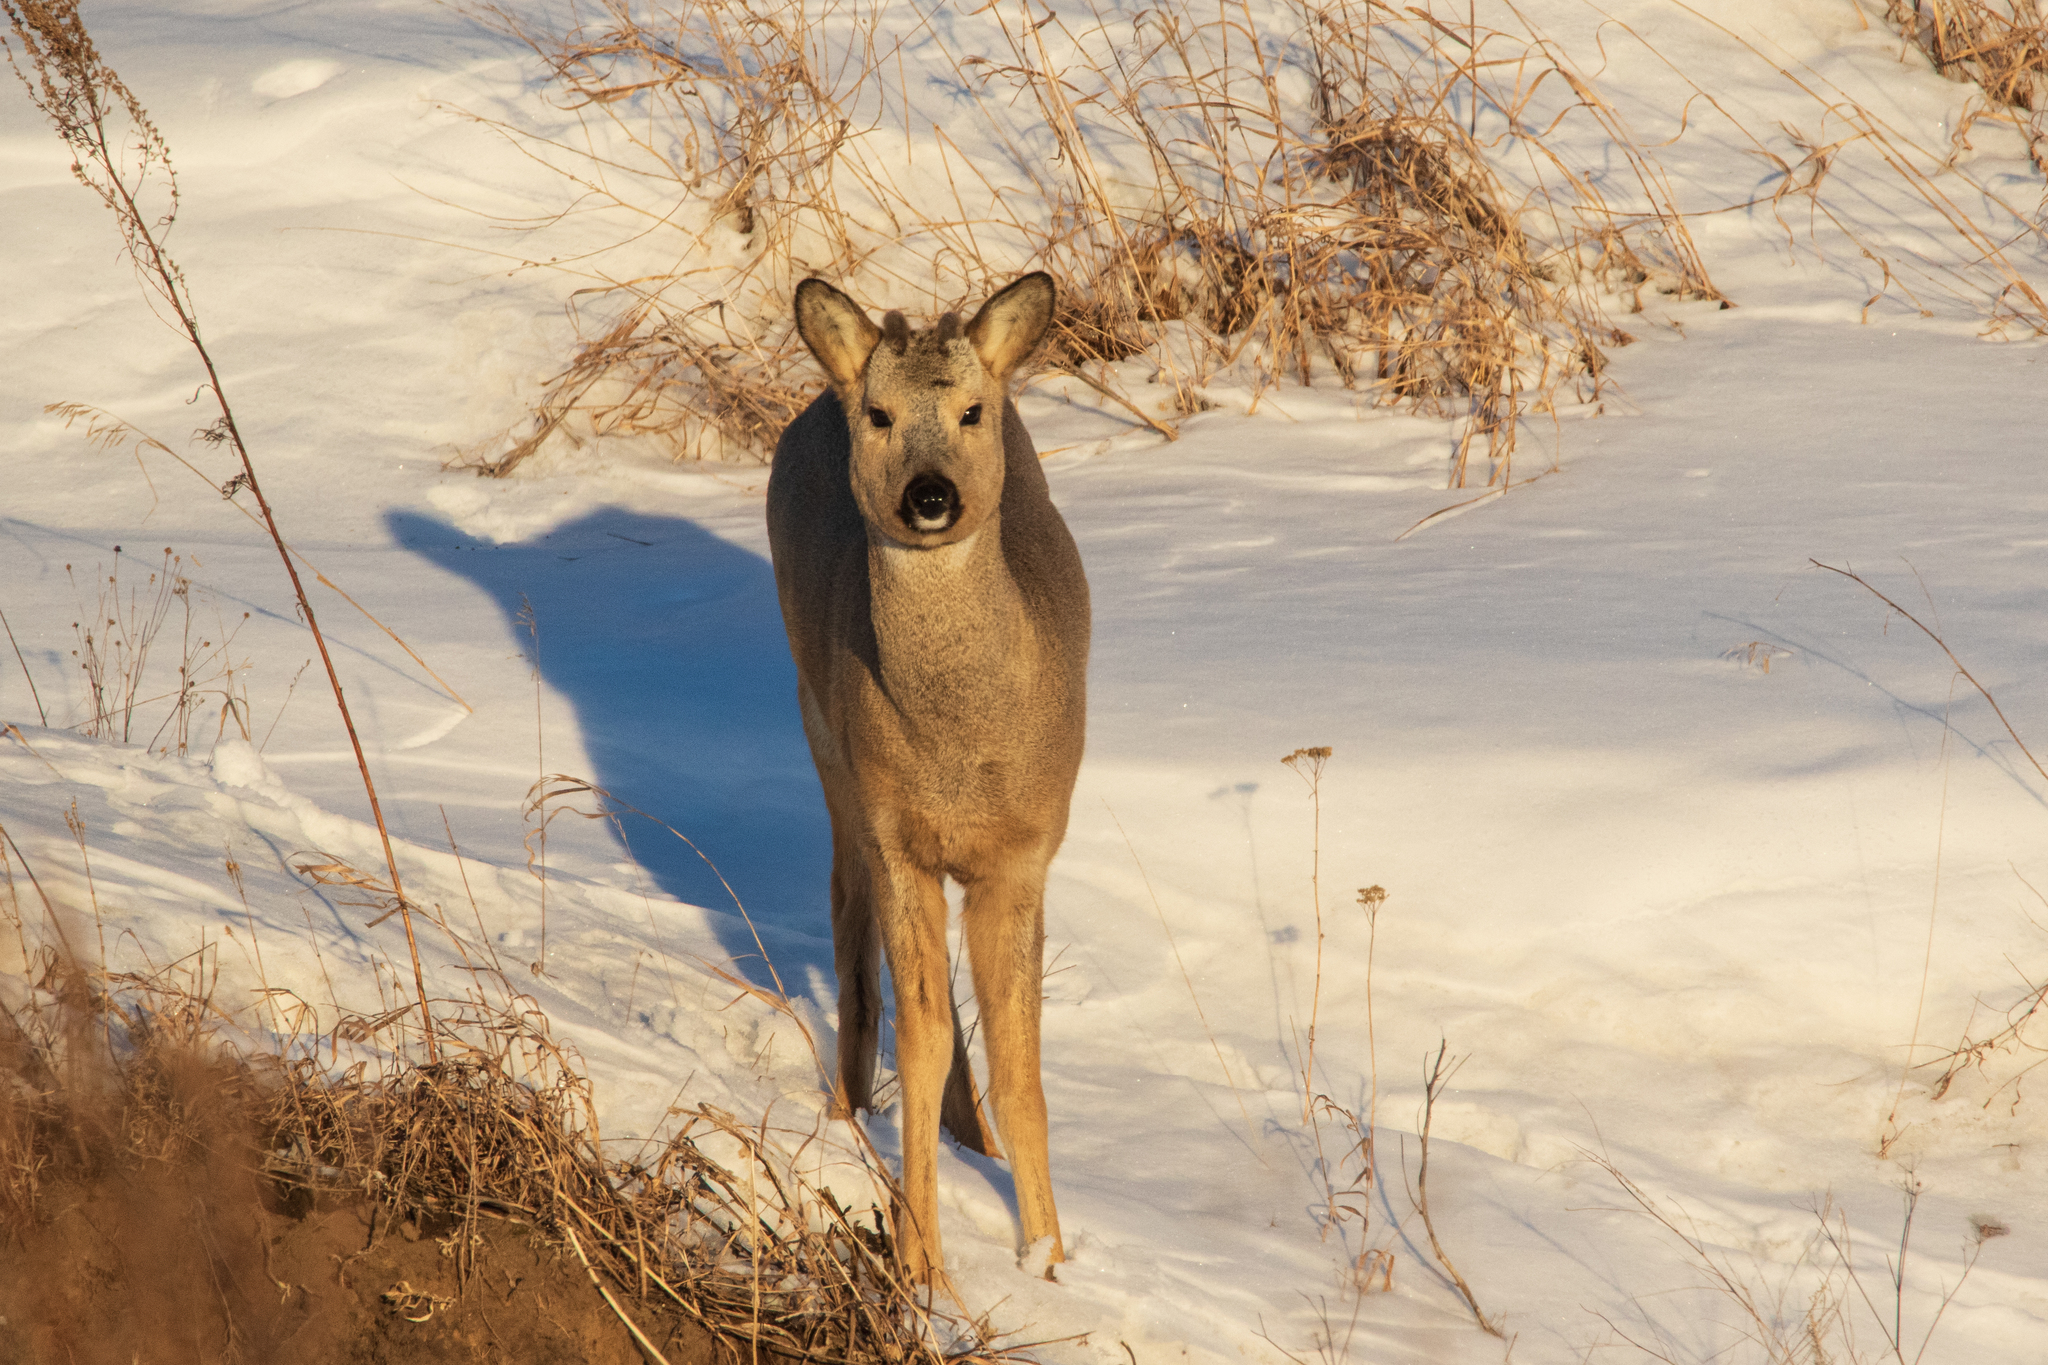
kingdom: Animalia
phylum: Chordata
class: Mammalia
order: Artiodactyla
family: Cervidae
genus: Capreolus
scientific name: Capreolus pygargus
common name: Siberian roe
